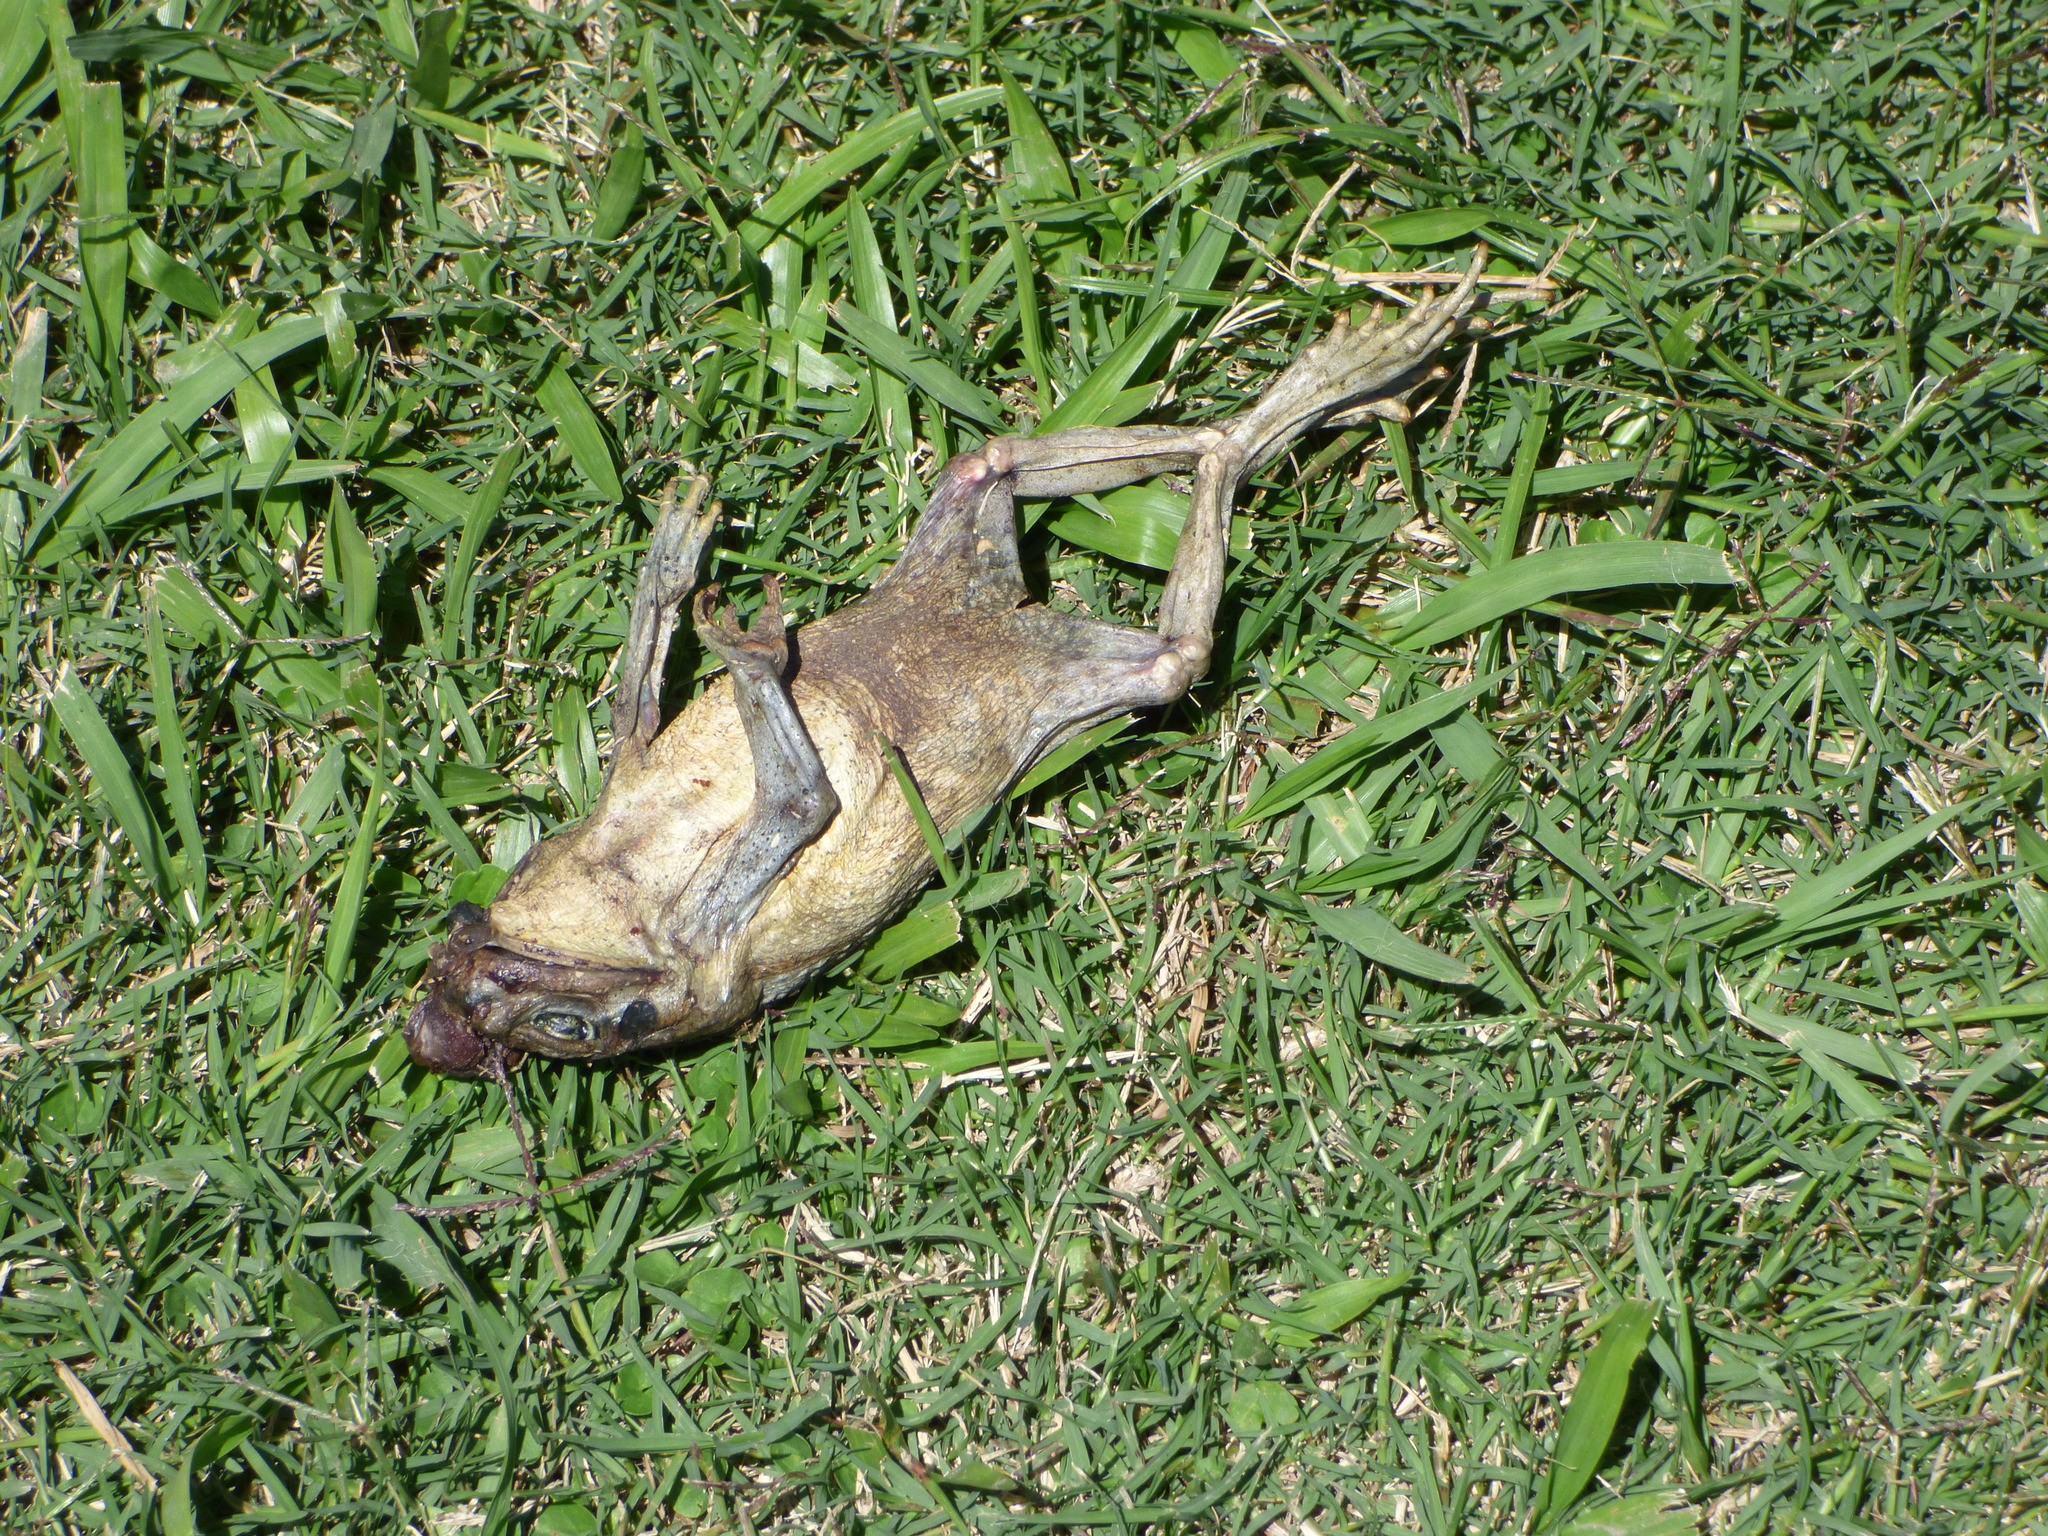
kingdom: Animalia
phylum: Chordata
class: Amphibia
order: Anura
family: Bufonidae
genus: Rhinella
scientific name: Rhinella arenarum
